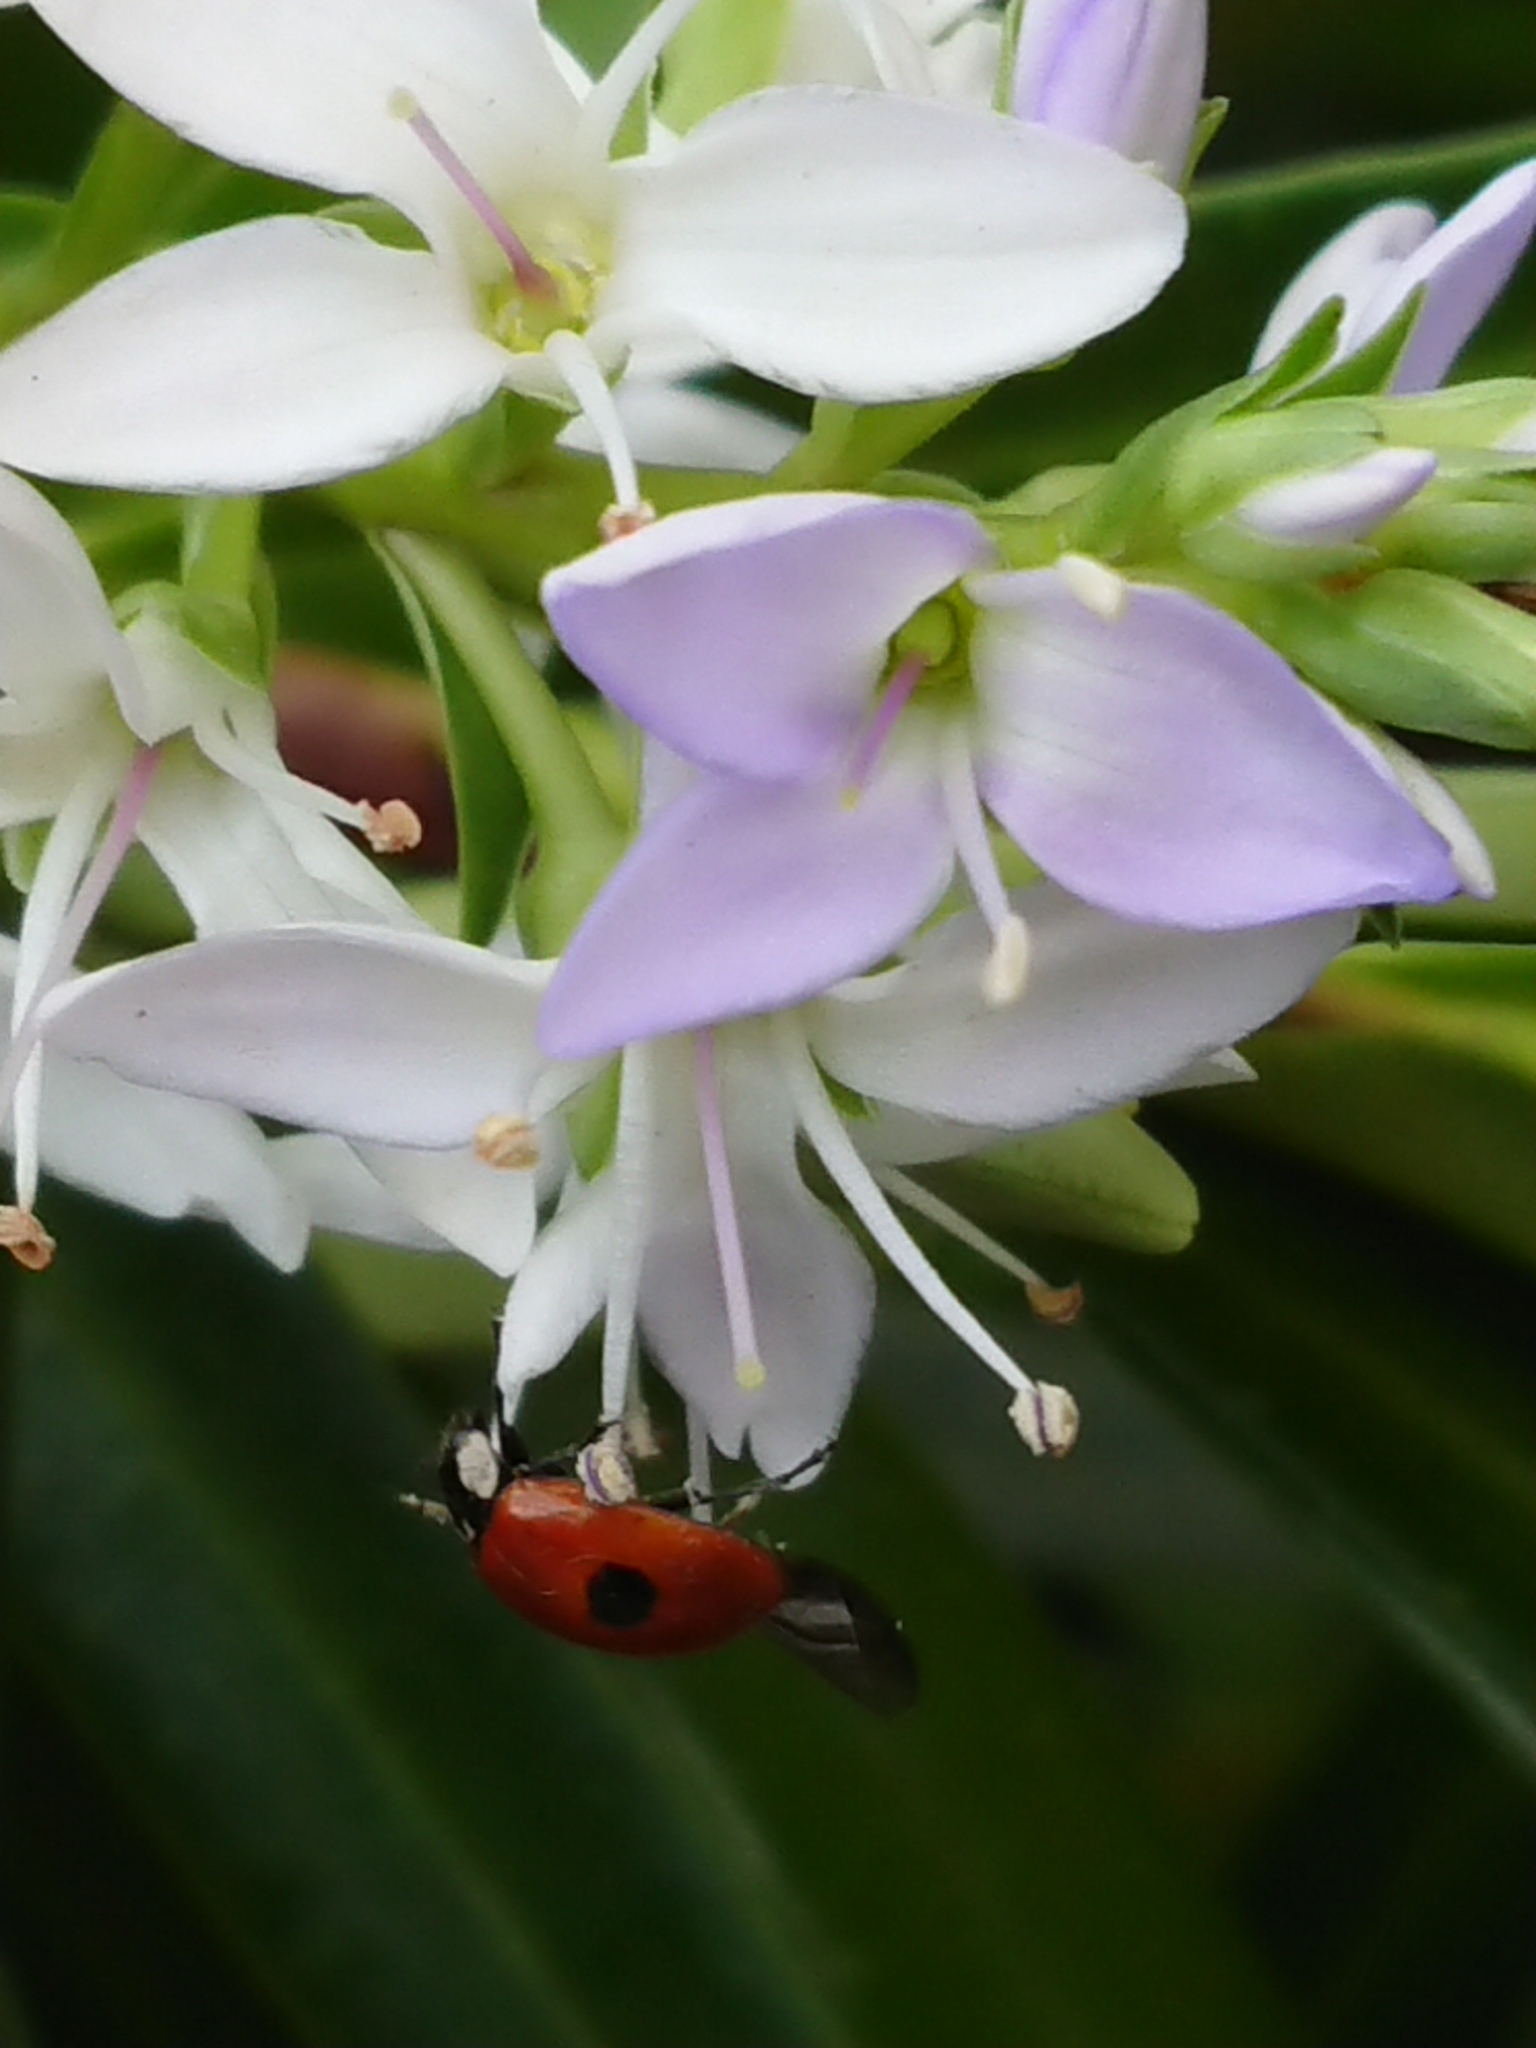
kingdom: Animalia
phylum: Arthropoda
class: Insecta
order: Coleoptera
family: Coccinellidae
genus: Adalia
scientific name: Adalia bipunctata
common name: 2-spot ladybird
